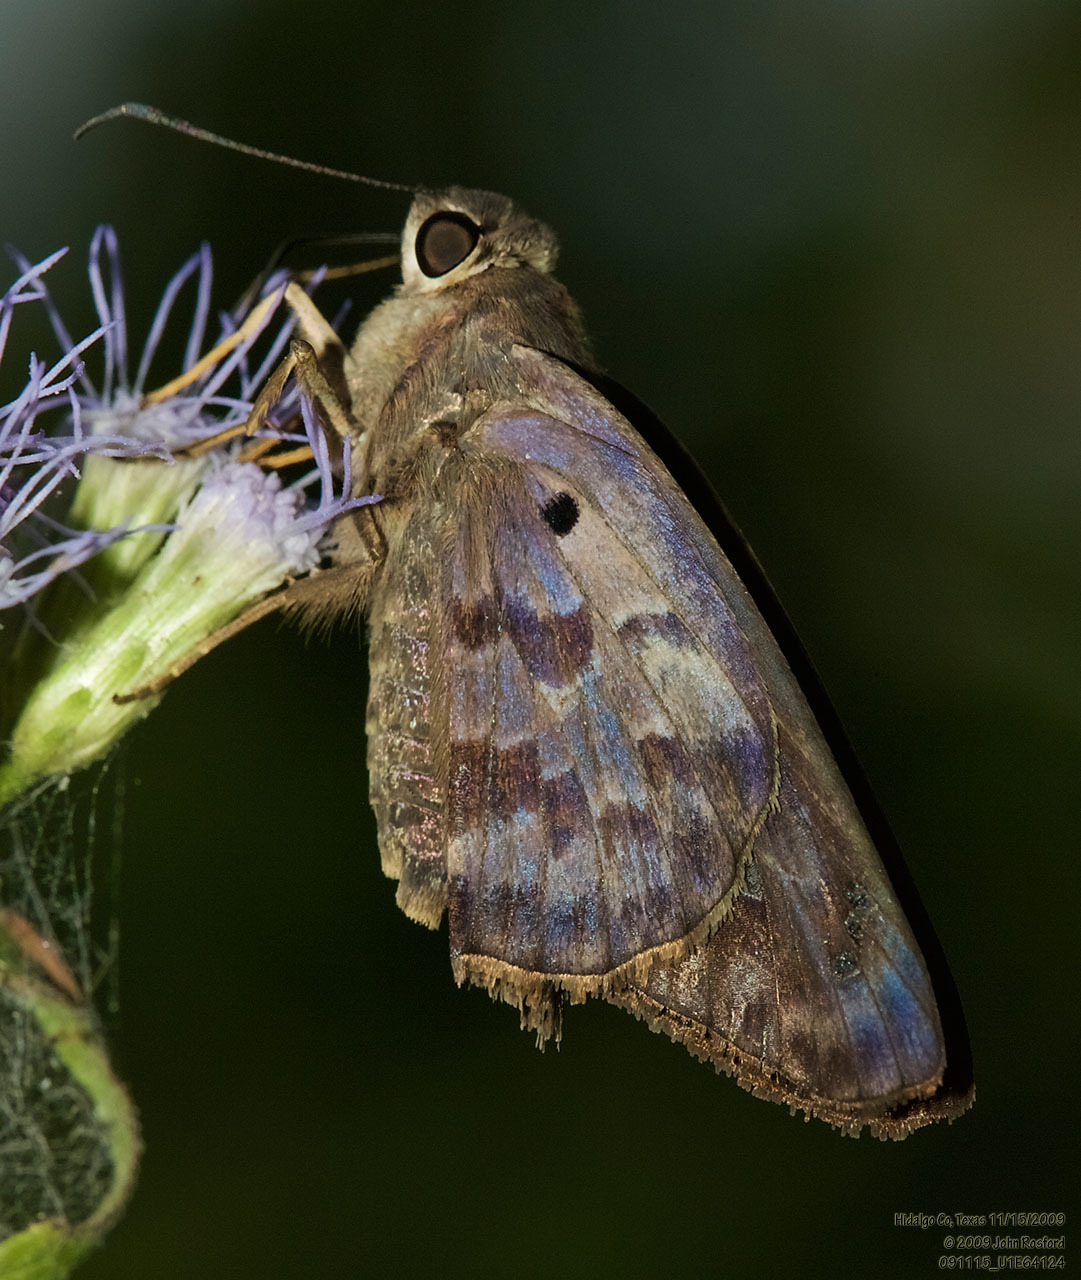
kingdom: Animalia
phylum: Arthropoda
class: Insecta
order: Lepidoptera
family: Hesperiidae
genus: Polygonus
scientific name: Polygonus leo
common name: Hammoch skipper
